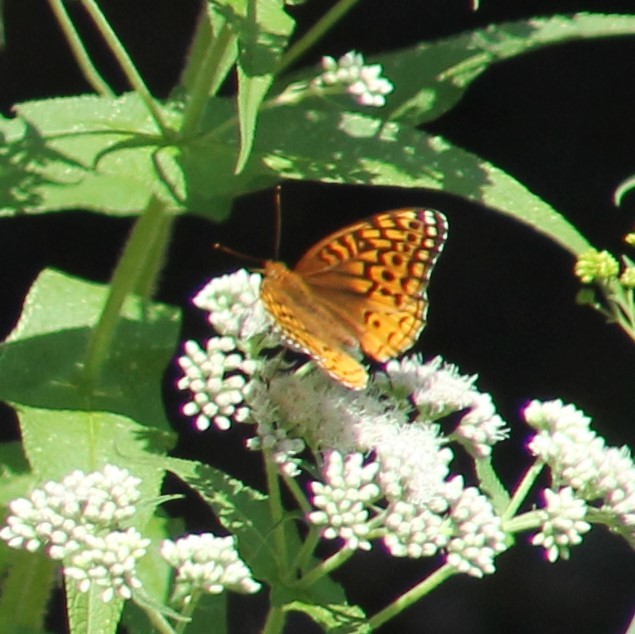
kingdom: Animalia
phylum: Arthropoda
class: Insecta
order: Lepidoptera
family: Nymphalidae
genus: Speyeria
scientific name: Speyeria cybele
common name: Great spangled fritillary
